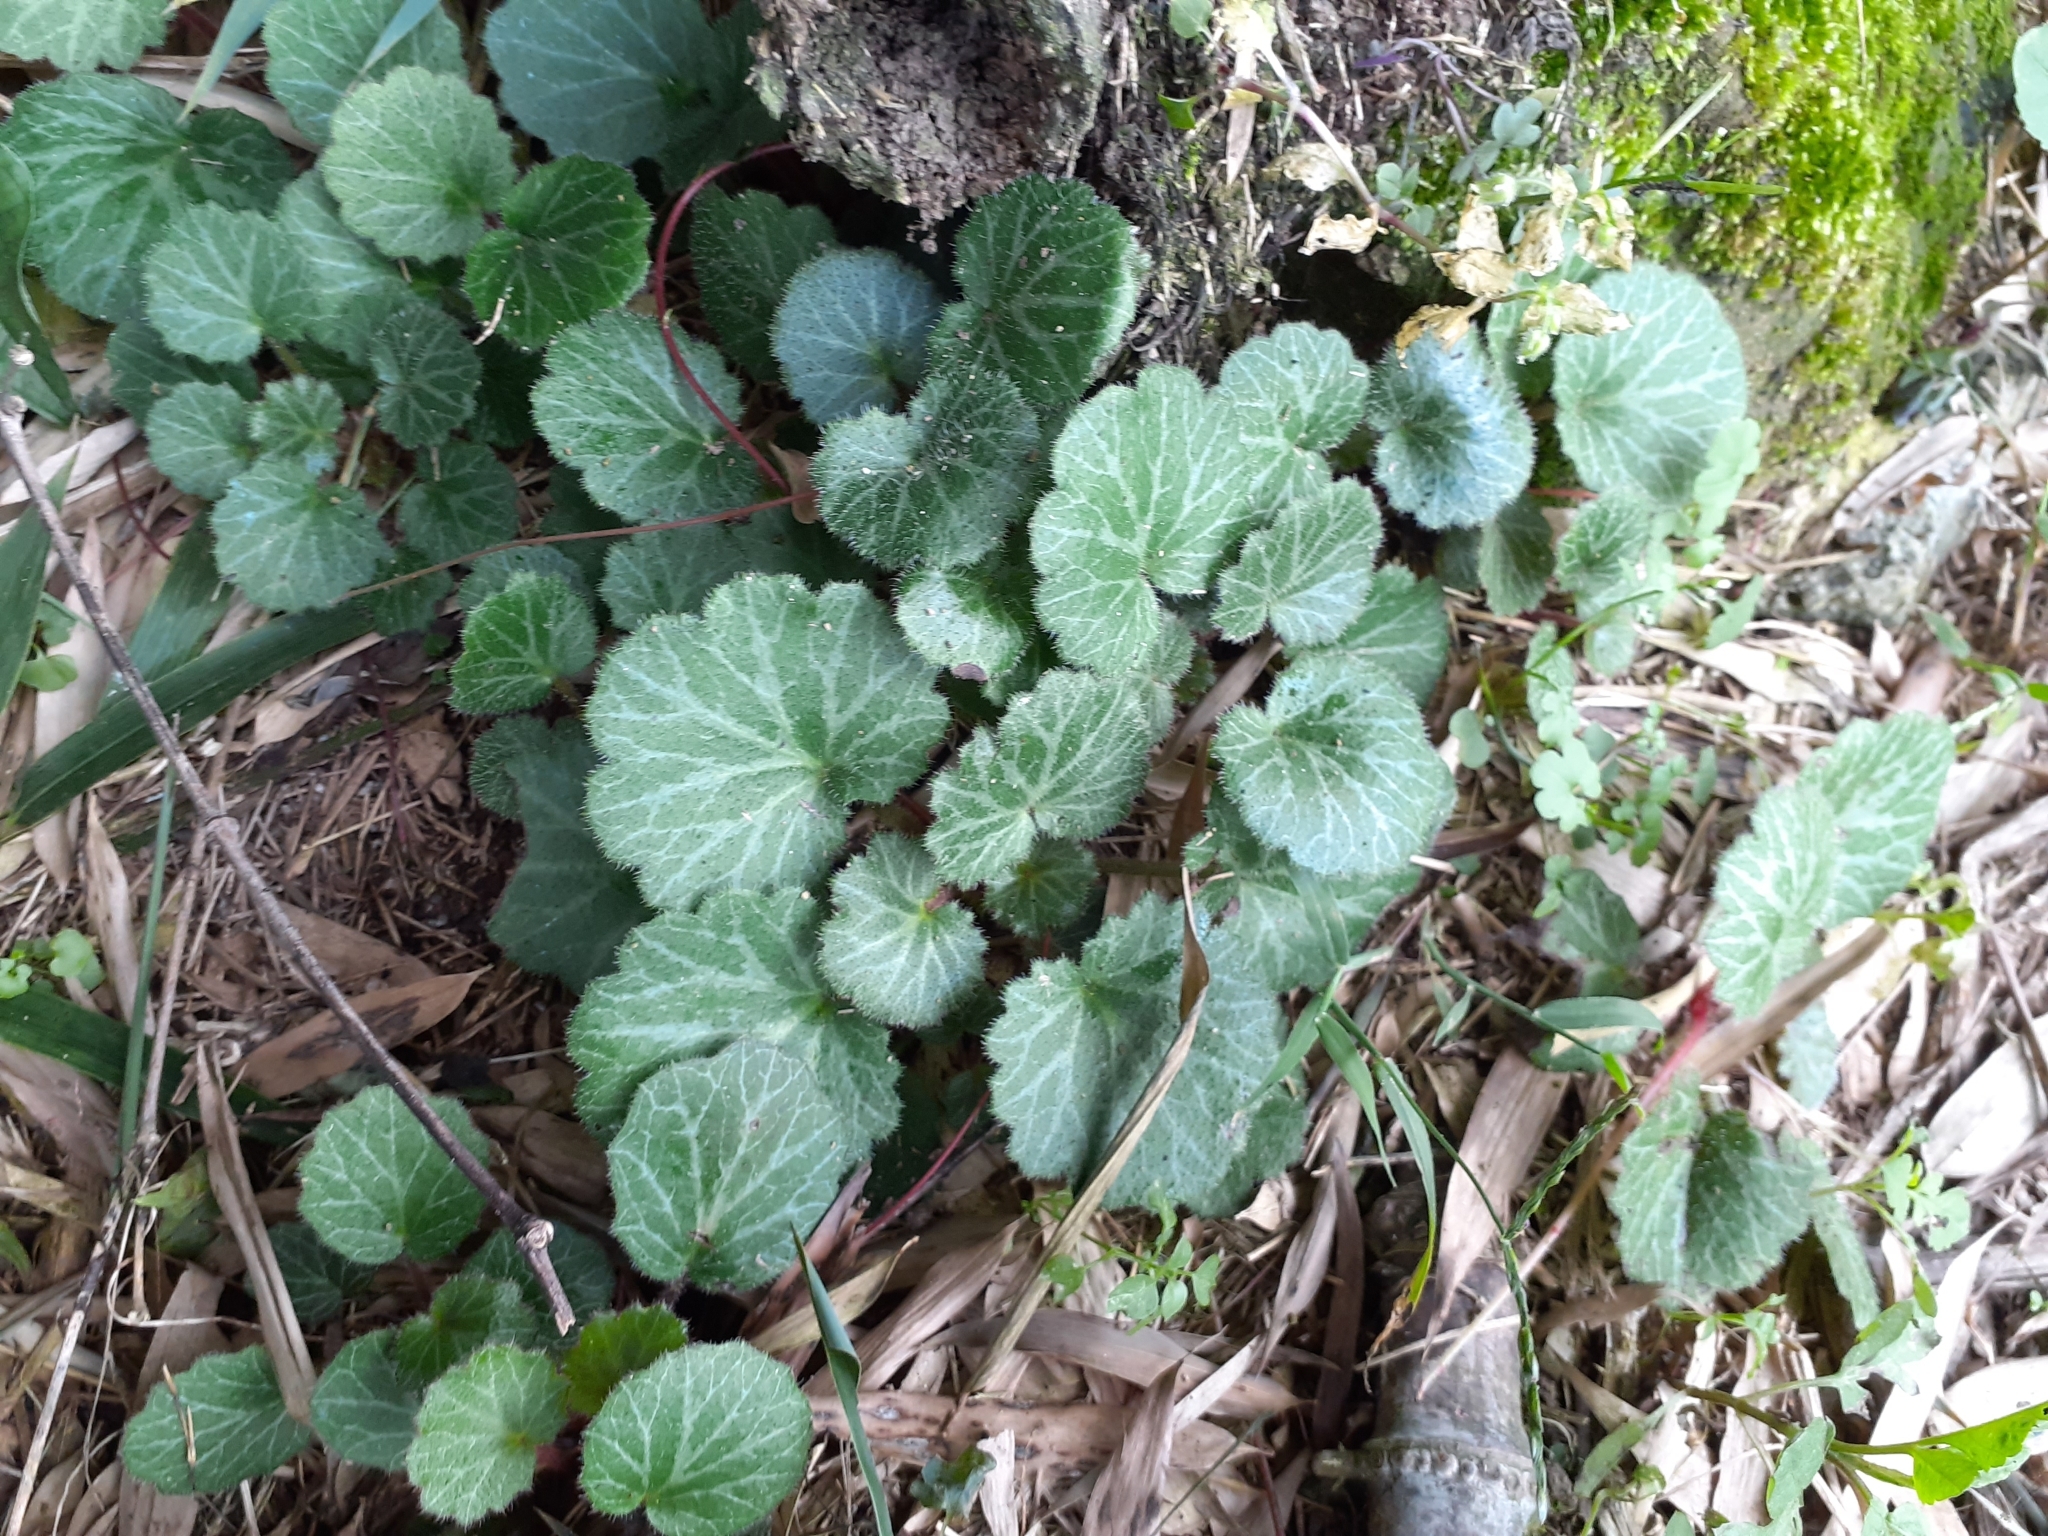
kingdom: Plantae
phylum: Tracheophyta
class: Magnoliopsida
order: Saxifragales
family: Saxifragaceae
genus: Saxifraga
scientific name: Saxifraga stolonifera
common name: Creeping saxifrage
